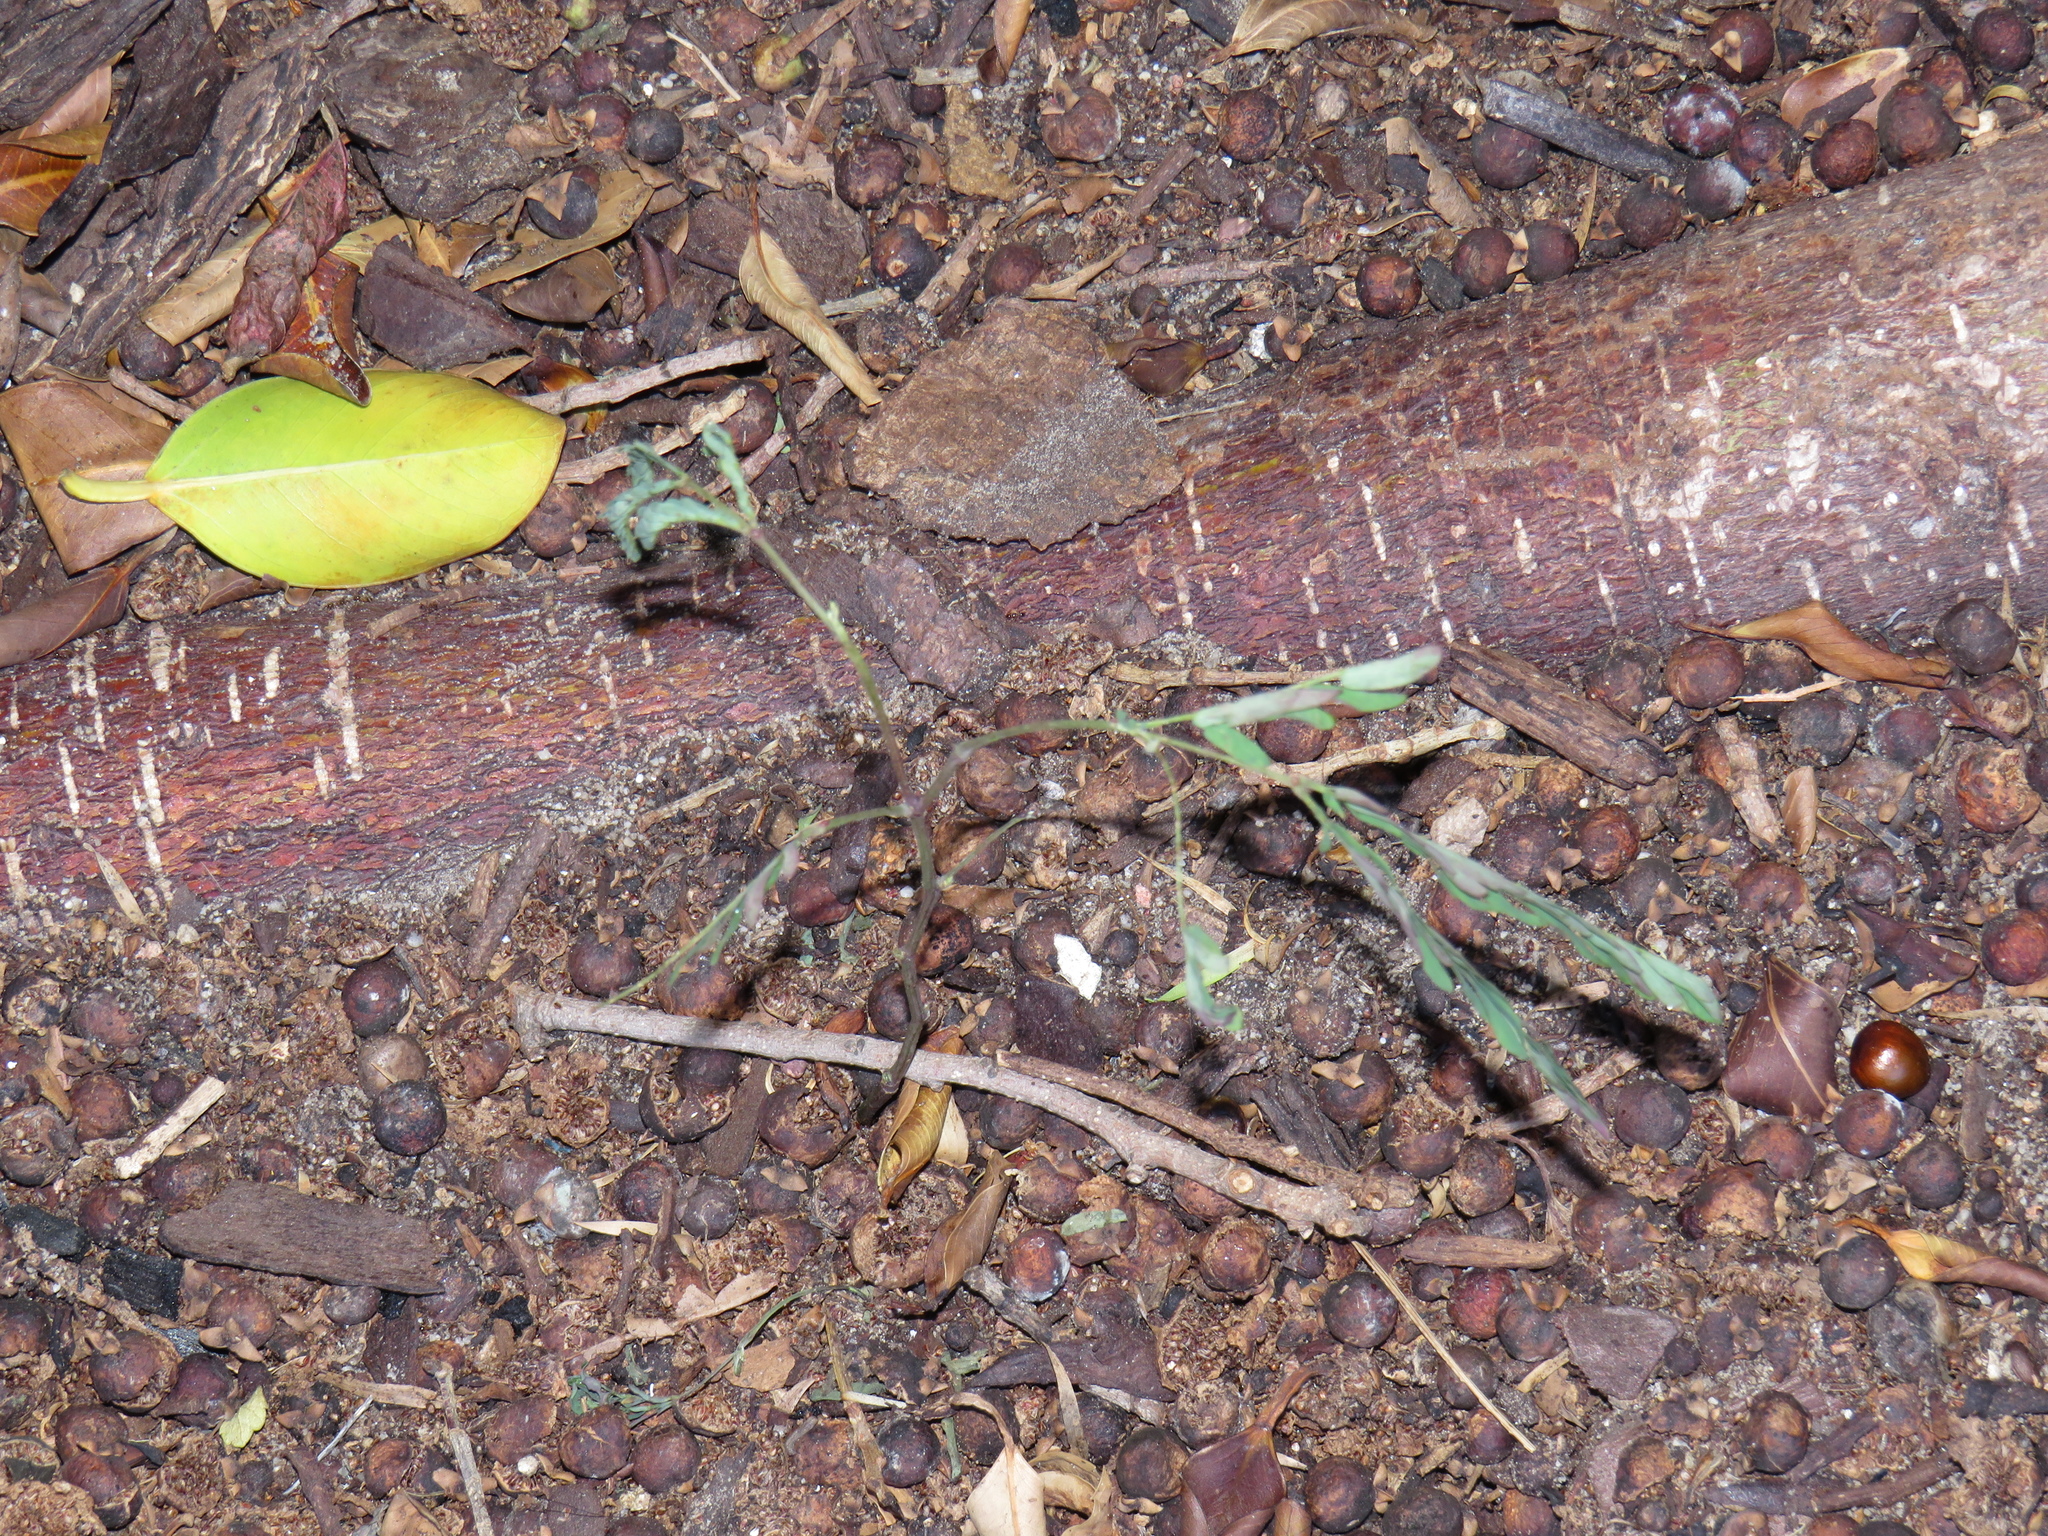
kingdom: Plantae
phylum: Tracheophyta
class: Magnoliopsida
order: Fabales
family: Fabaceae
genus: Paraserianthes
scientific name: Paraserianthes lophantha
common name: Plume albizia
